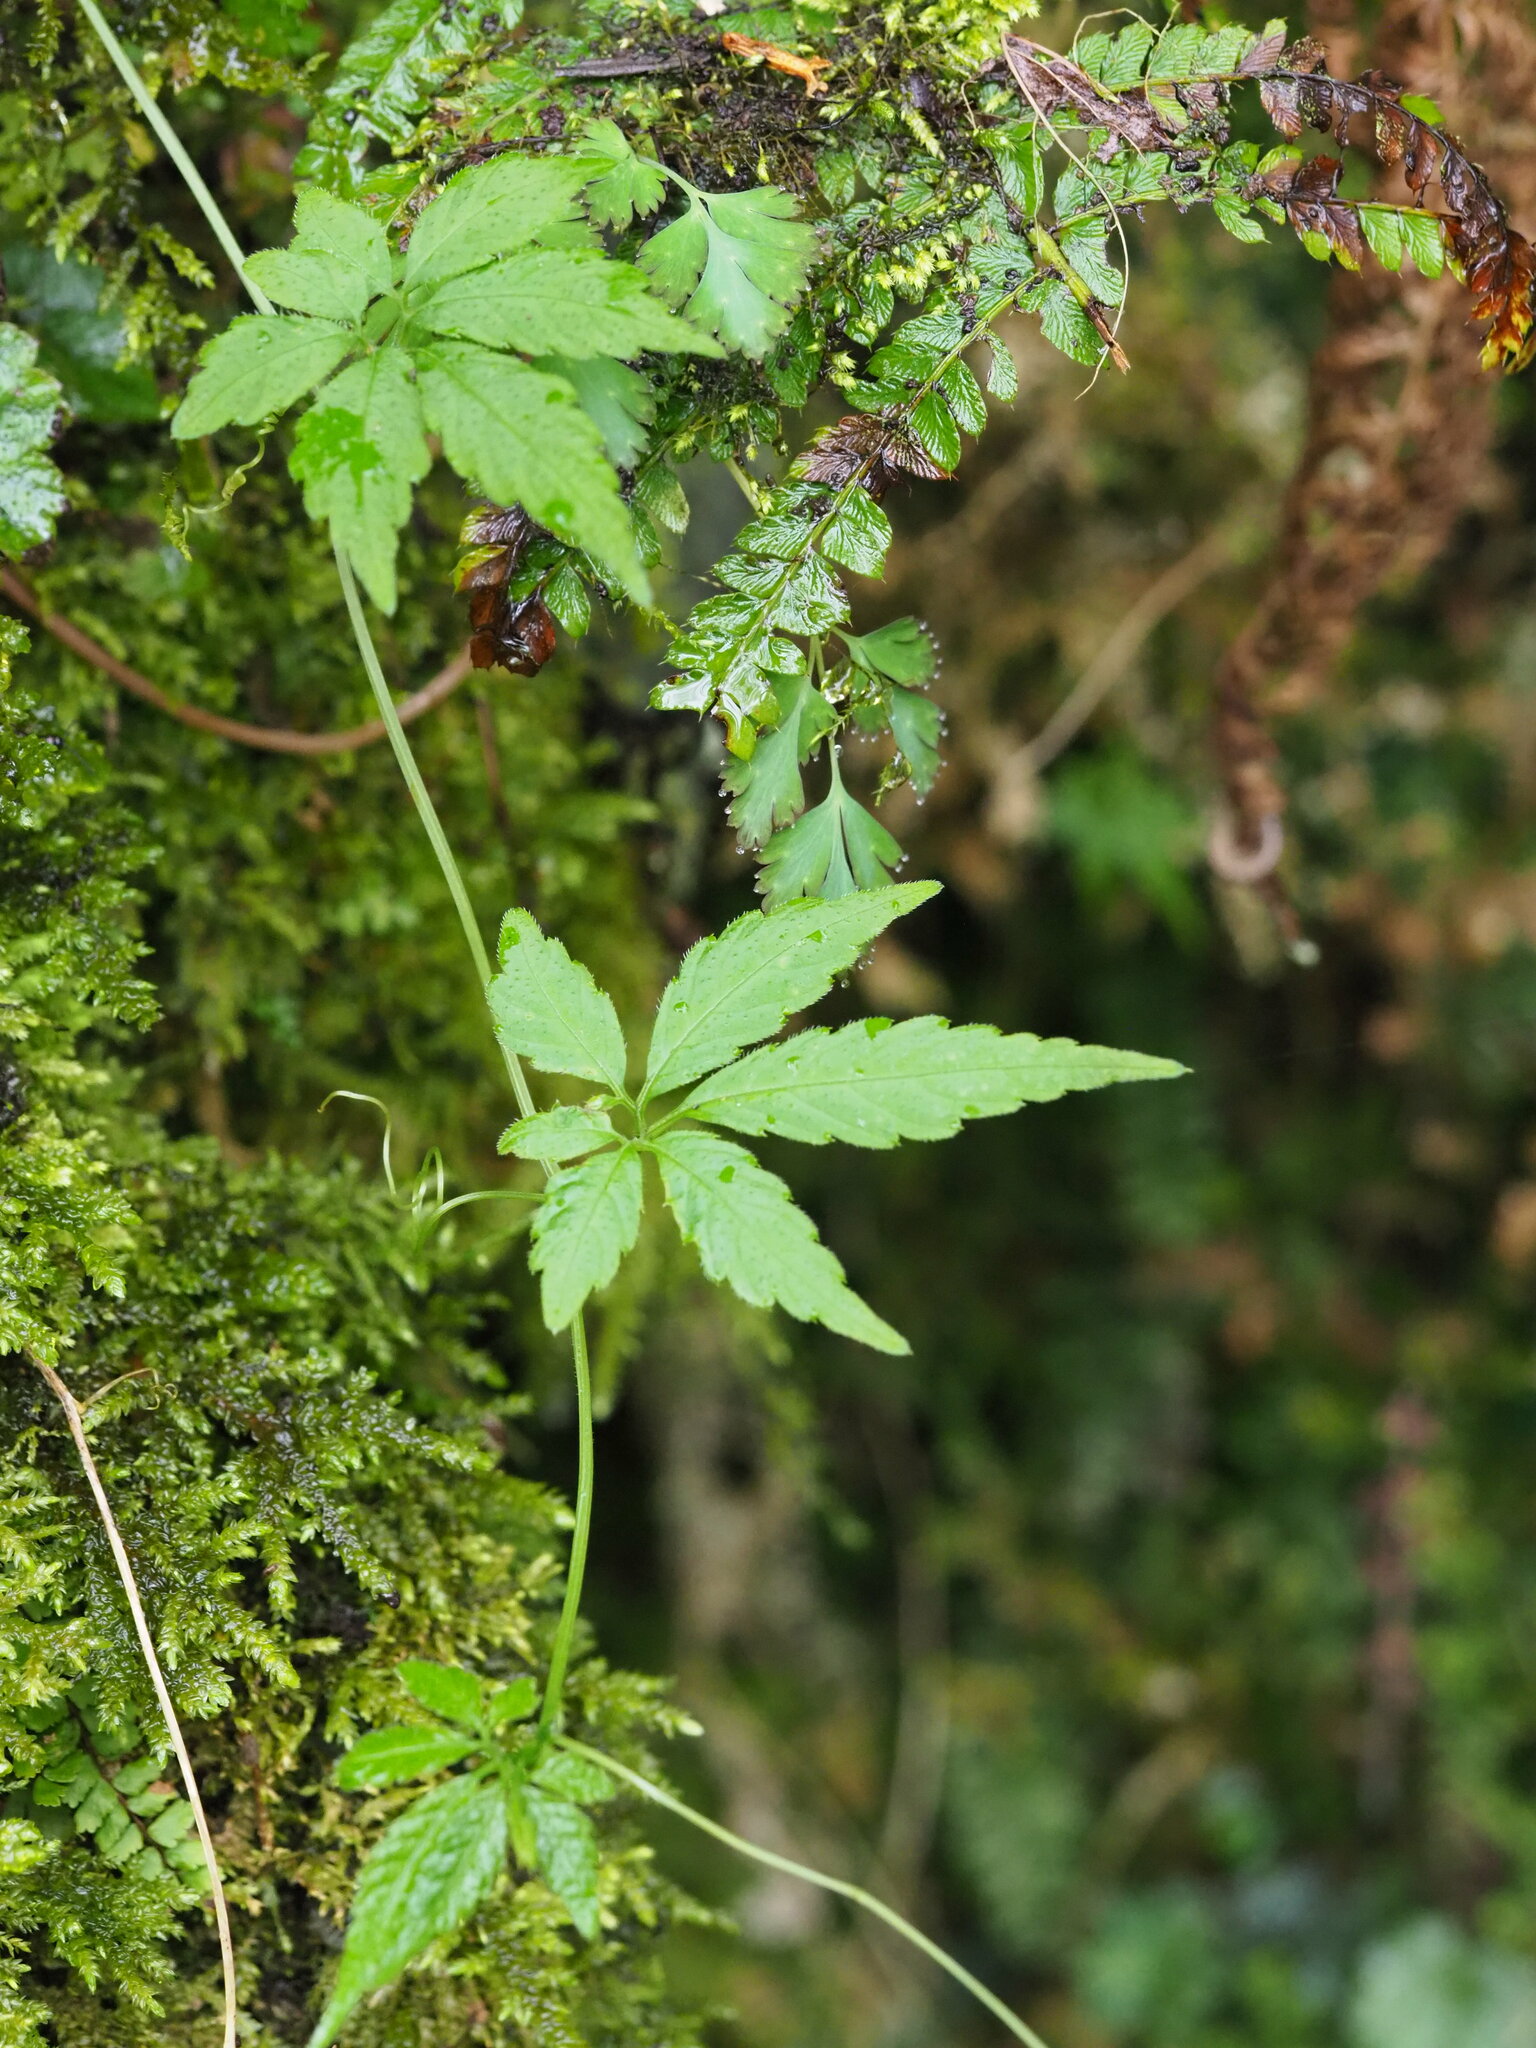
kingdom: Plantae
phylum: Tracheophyta
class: Magnoliopsida
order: Cucurbitales
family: Cucurbitaceae
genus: Gynostemma
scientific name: Gynostemma pentaphyllum
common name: Gynostemma
